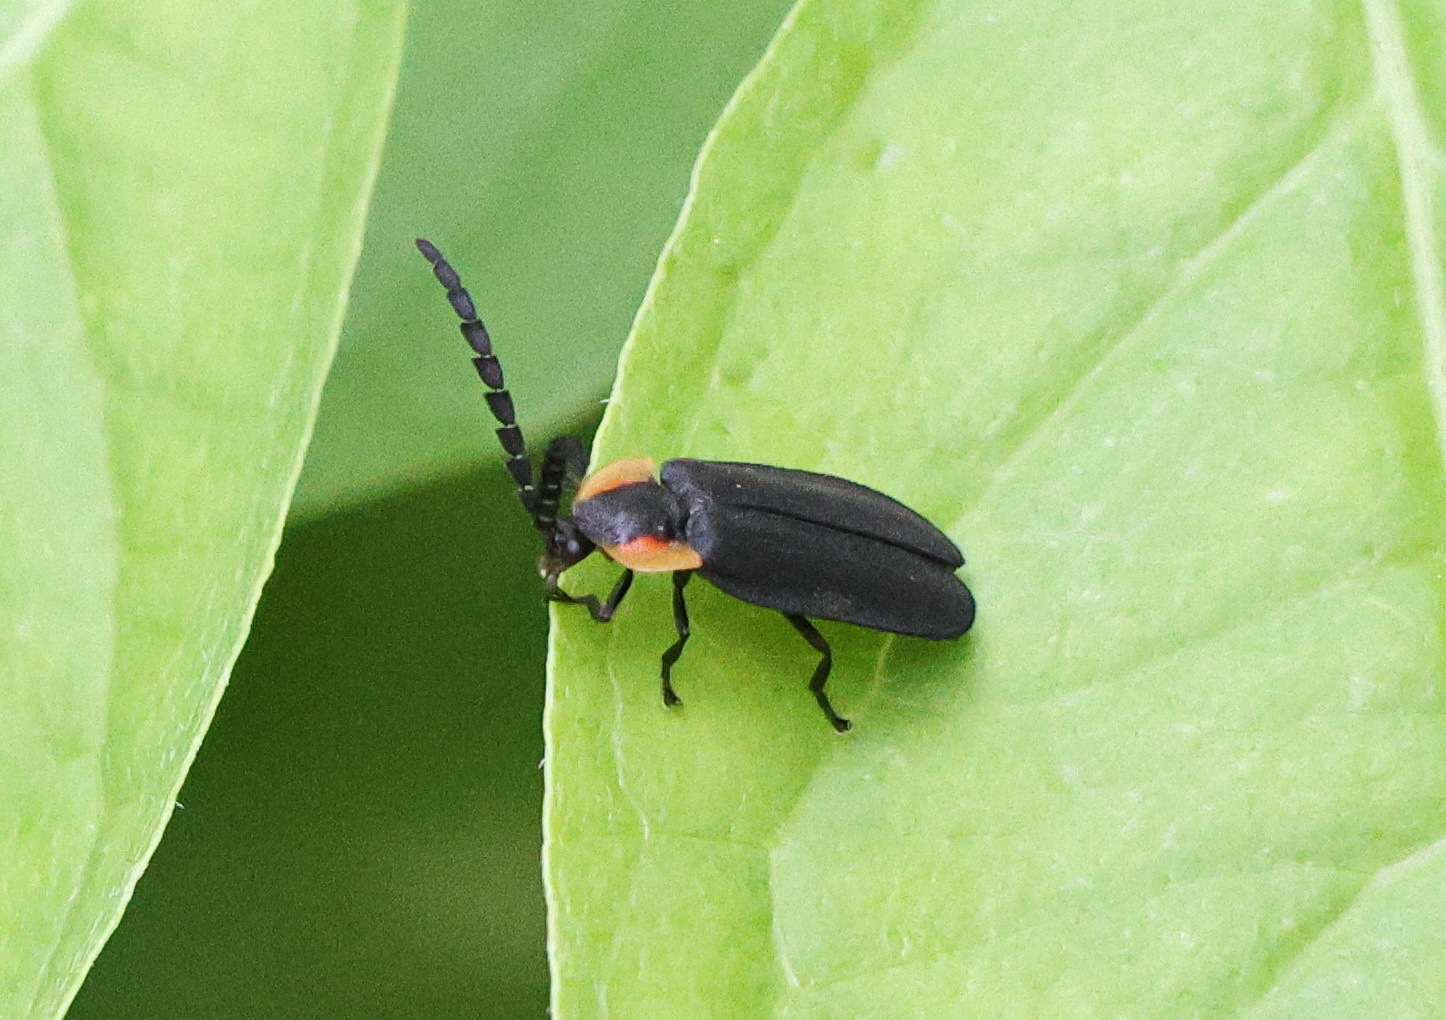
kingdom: Animalia
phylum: Arthropoda
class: Insecta
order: Coleoptera
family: Lampyridae
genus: Lucidota
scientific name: Lucidota atra
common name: Black firefly
